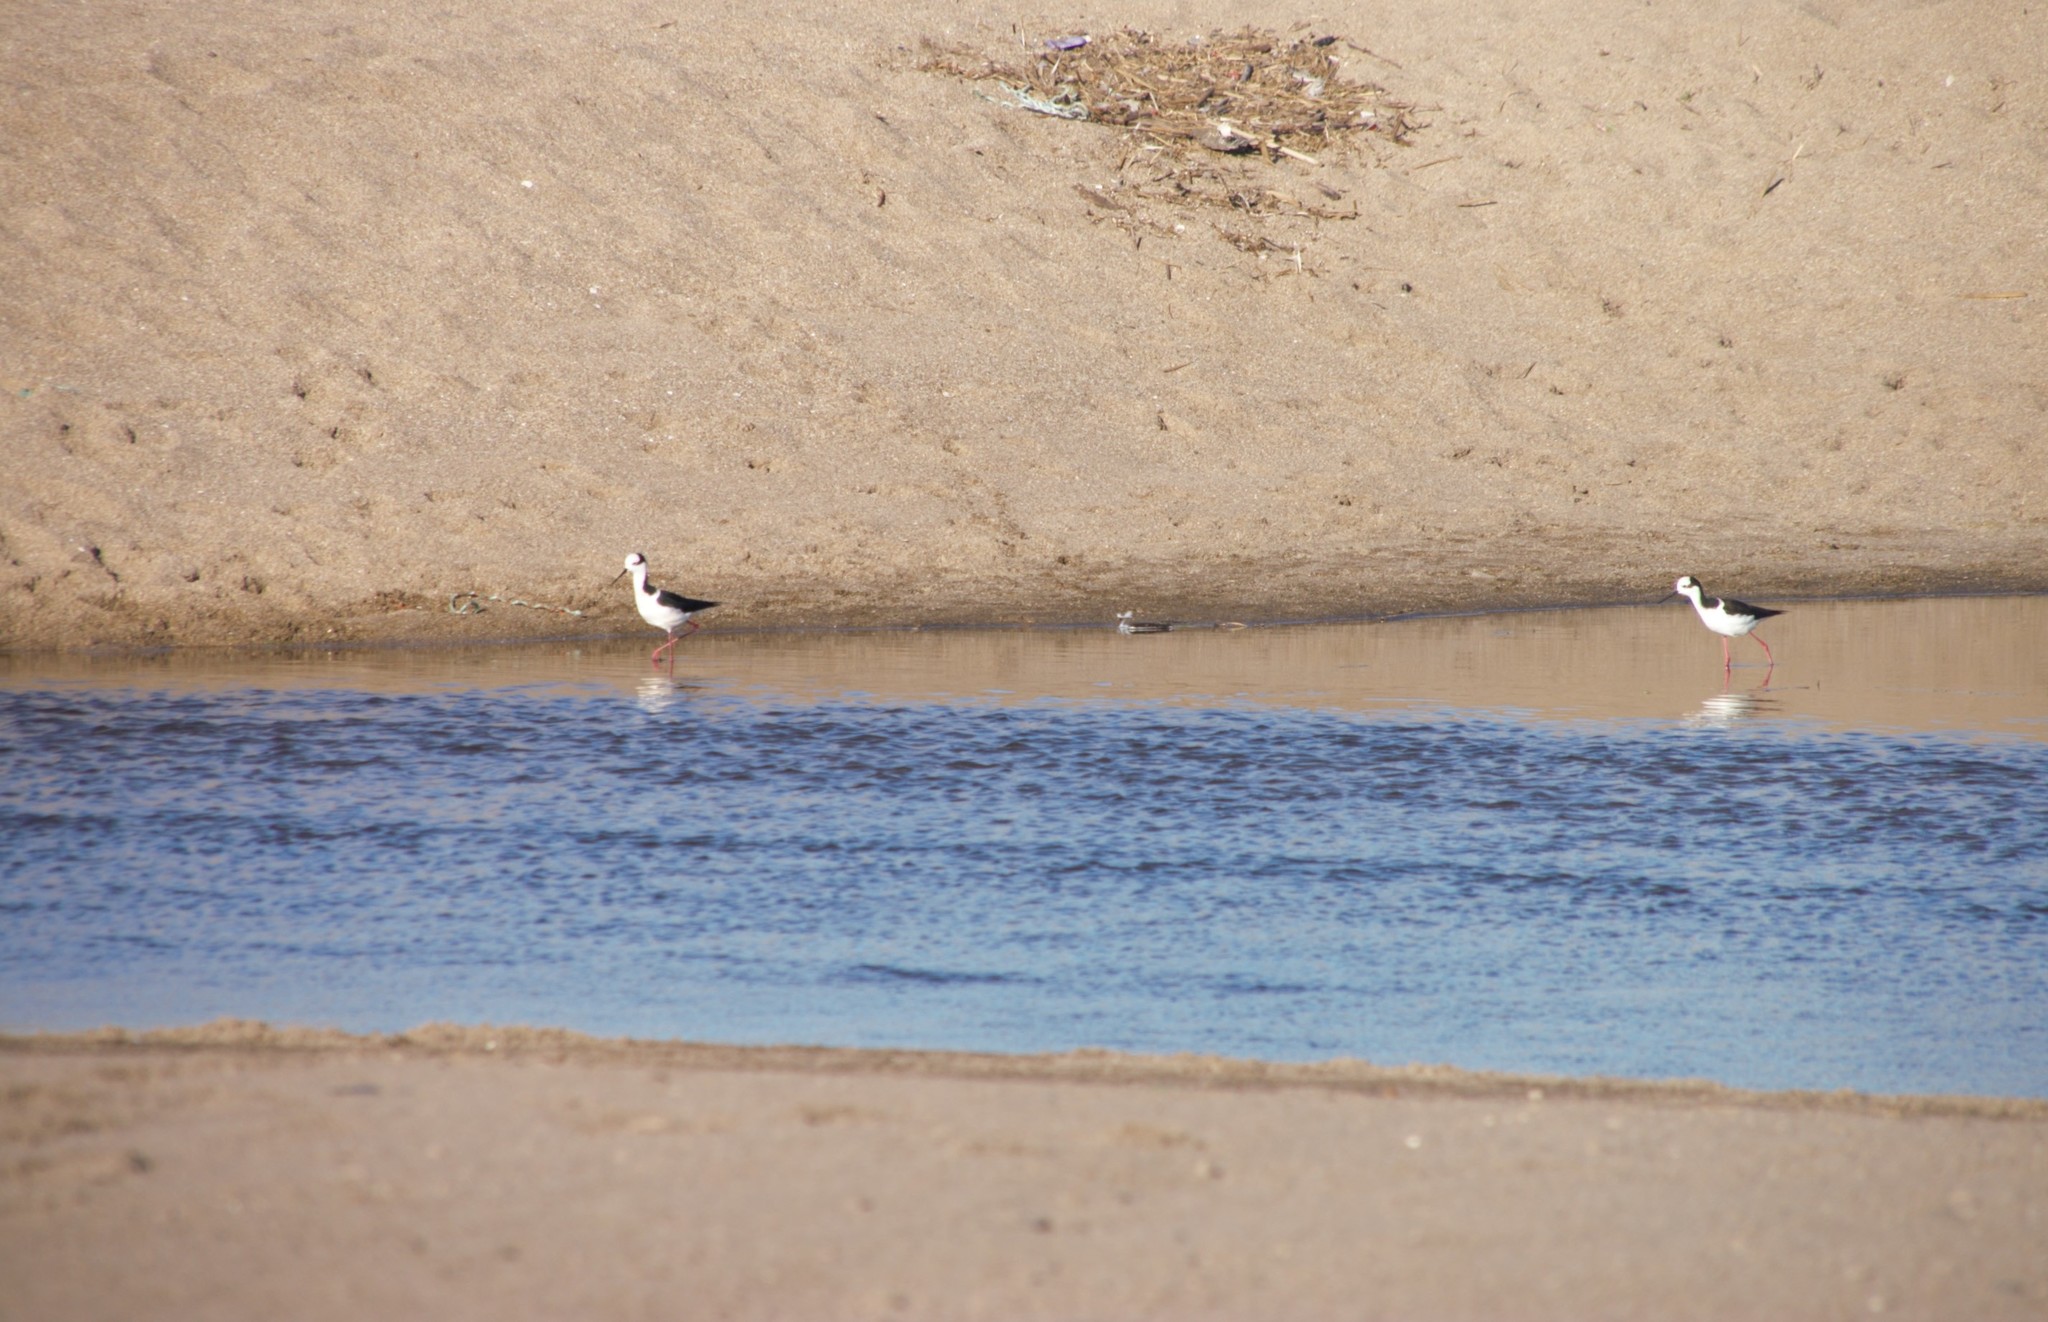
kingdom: Animalia
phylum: Chordata
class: Aves
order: Charadriiformes
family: Recurvirostridae
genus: Himantopus
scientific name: Himantopus mexicanus
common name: Black-necked stilt
